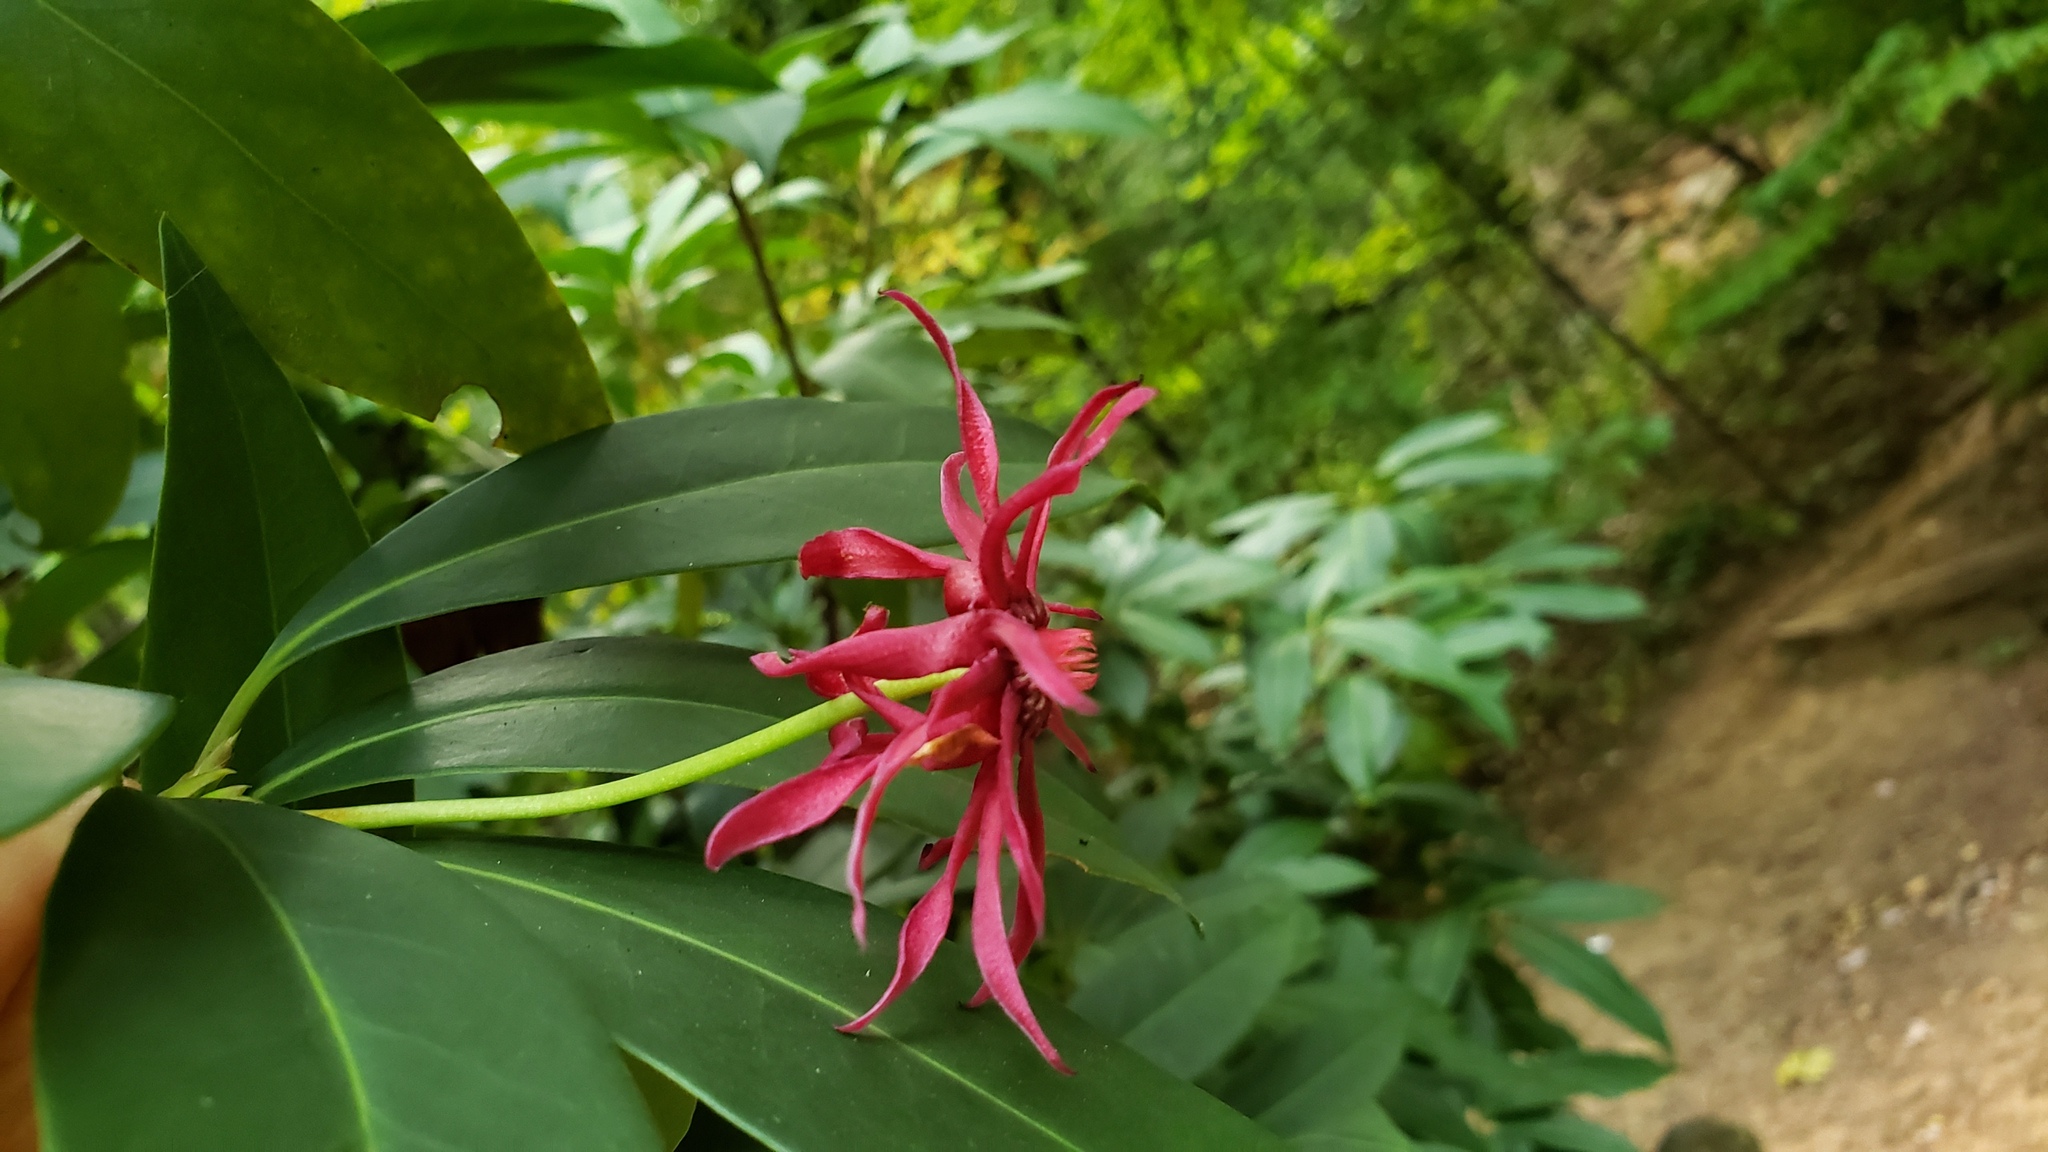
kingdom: Plantae
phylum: Tracheophyta
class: Magnoliopsida
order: Austrobaileyales
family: Schisandraceae
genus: Illicium
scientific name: Illicium floridanum
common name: Florida anisetree
